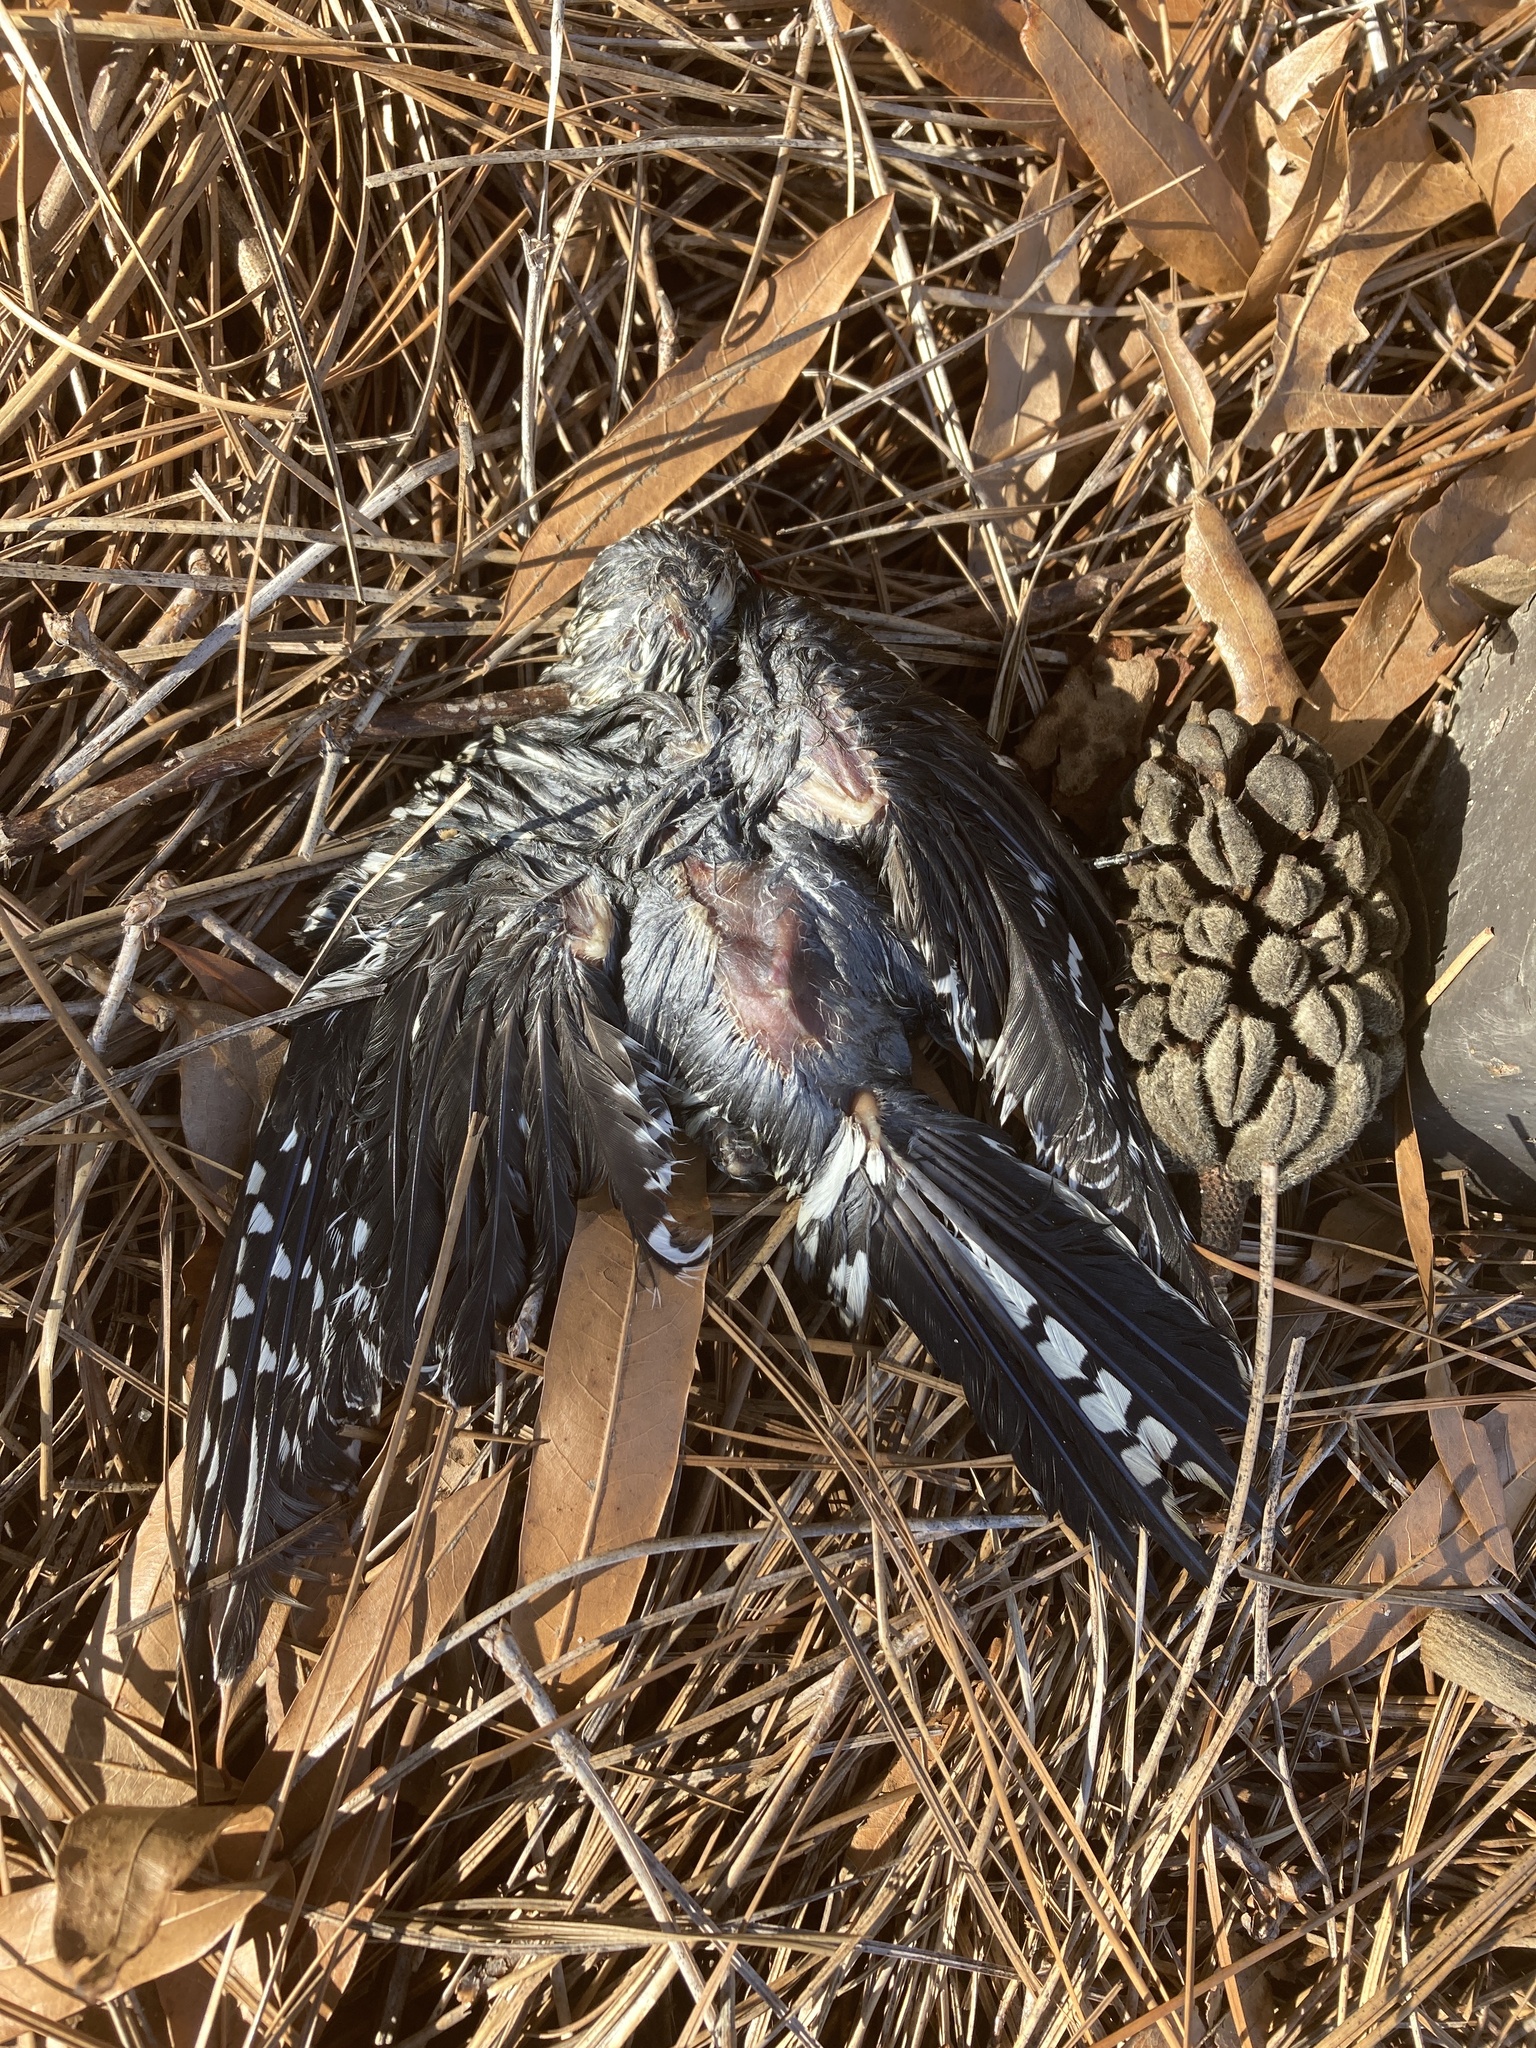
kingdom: Animalia
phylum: Chordata
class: Aves
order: Piciformes
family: Picidae
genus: Sphyrapicus
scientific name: Sphyrapicus varius
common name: Yellow-bellied sapsucker
